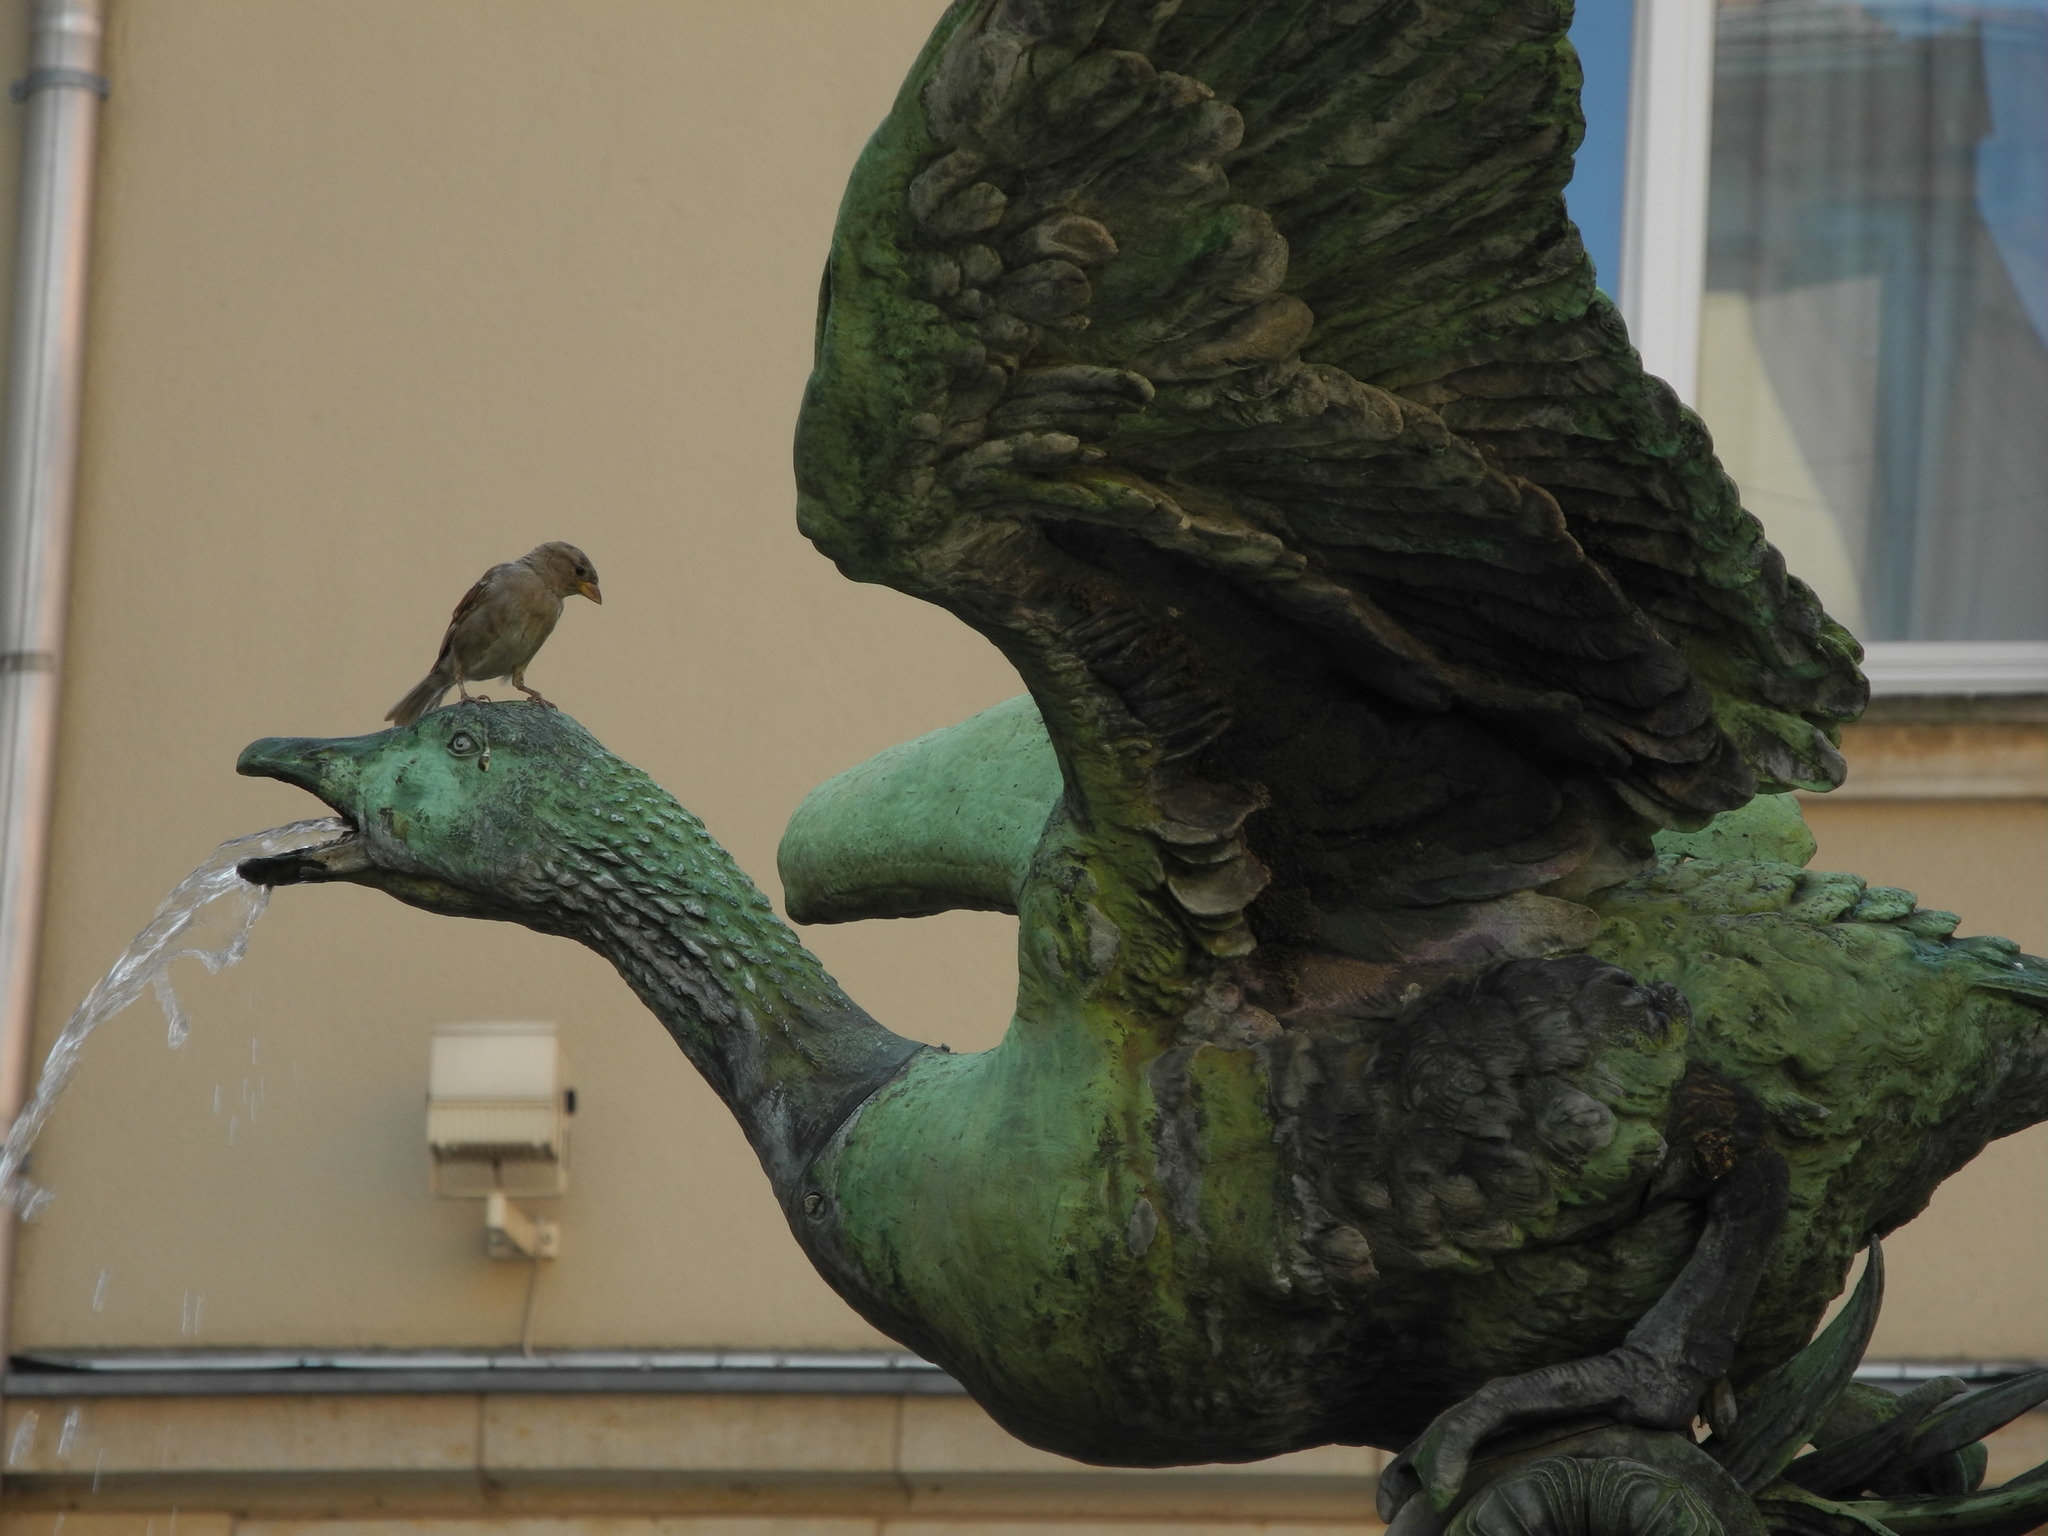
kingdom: Animalia
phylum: Chordata
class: Aves
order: Passeriformes
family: Passeridae
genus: Passer
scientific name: Passer domesticus
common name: House sparrow
